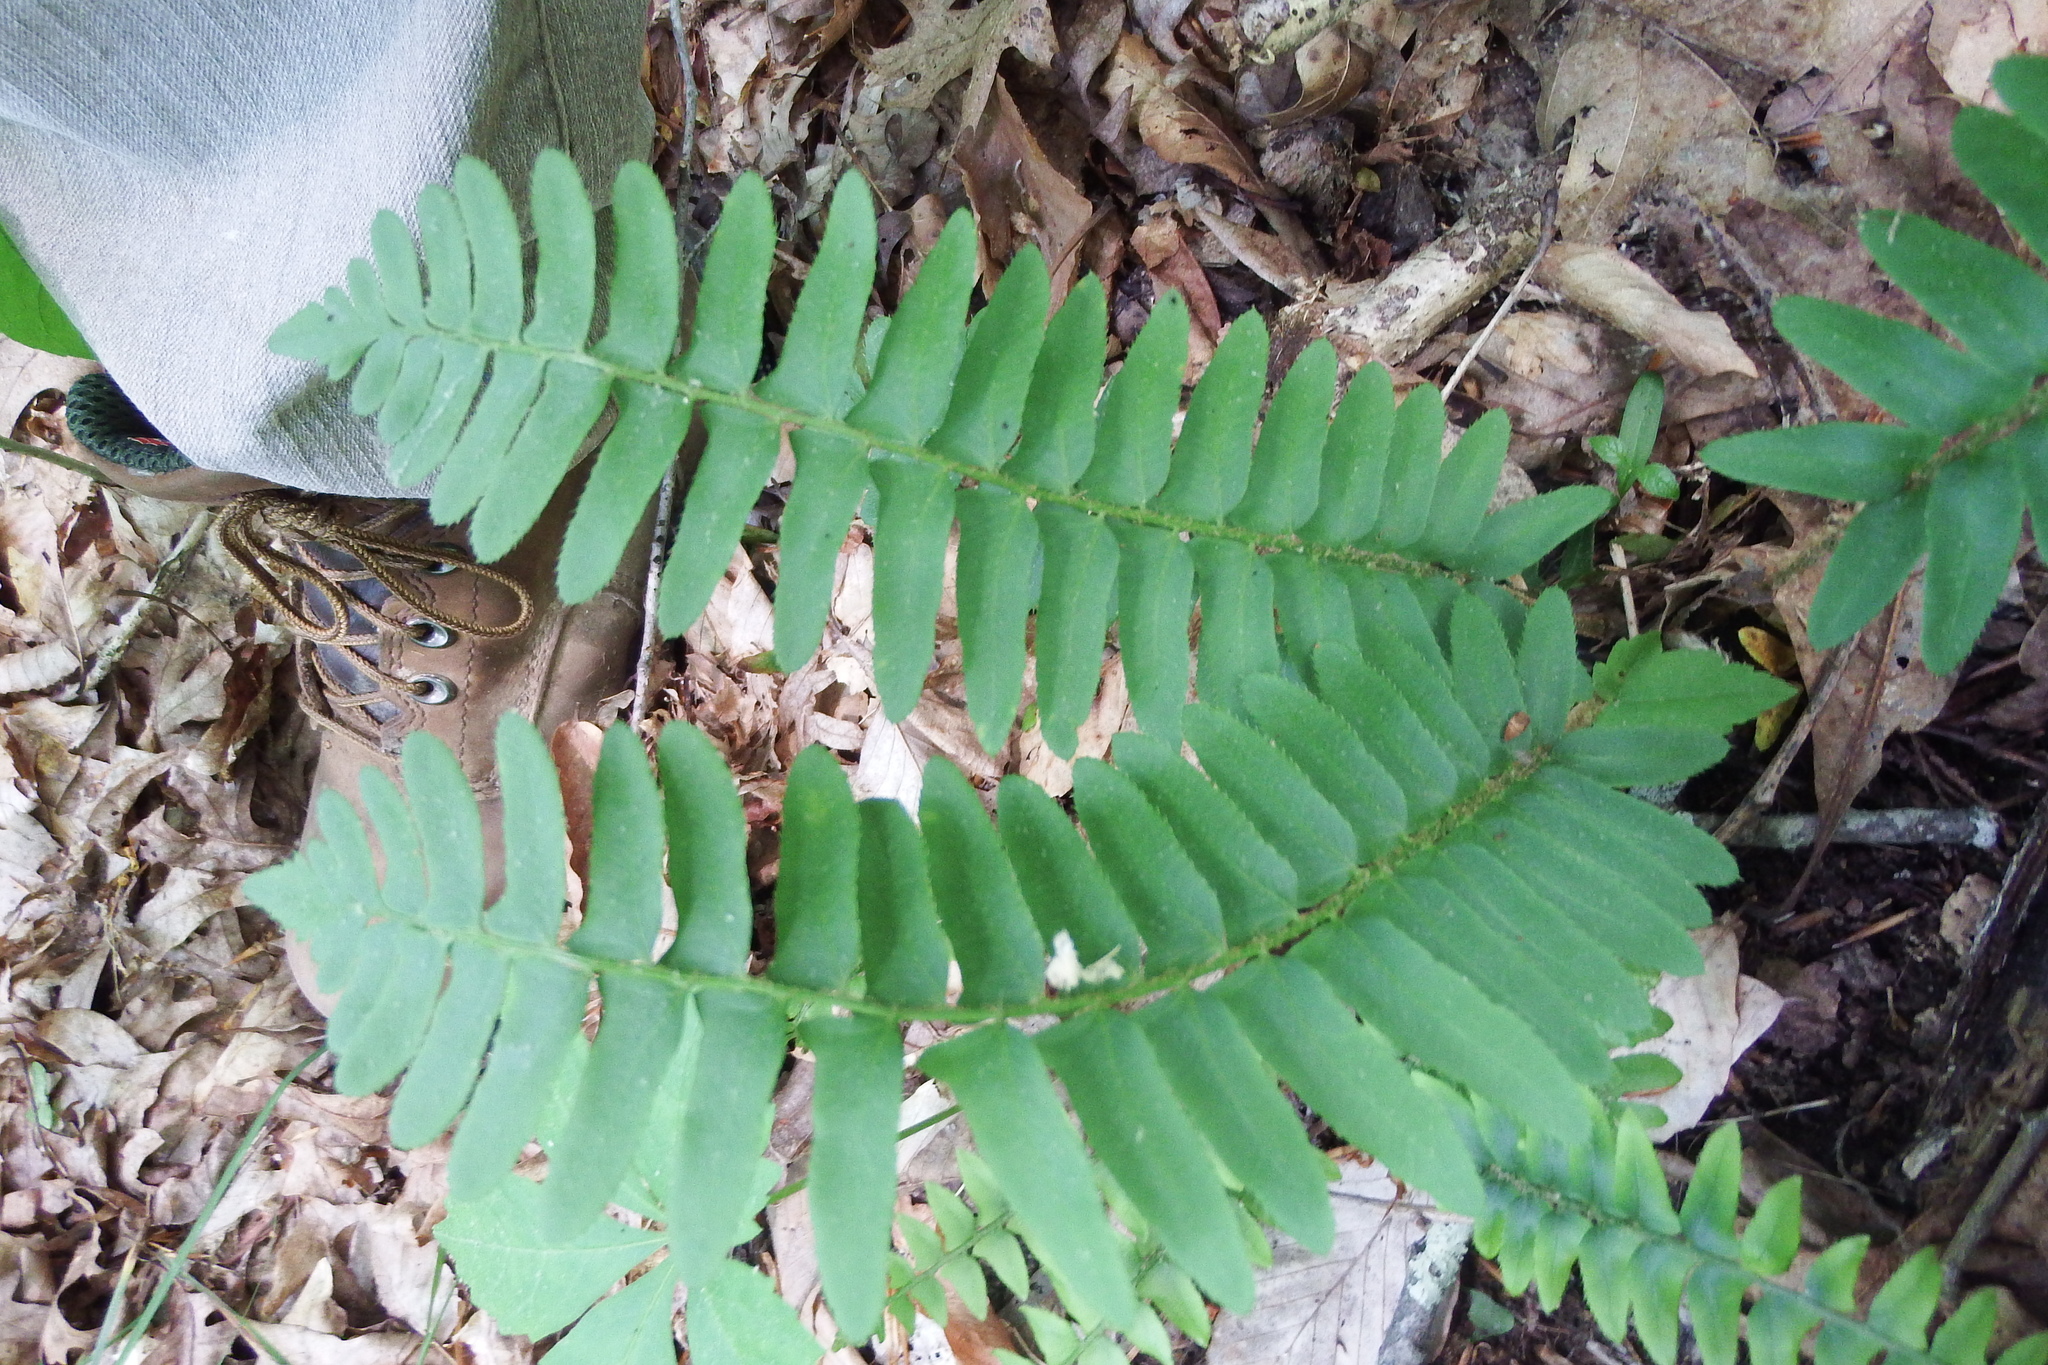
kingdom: Plantae
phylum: Tracheophyta
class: Polypodiopsida
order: Polypodiales
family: Dryopteridaceae
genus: Polystichum
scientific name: Polystichum acrostichoides
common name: Christmas fern
